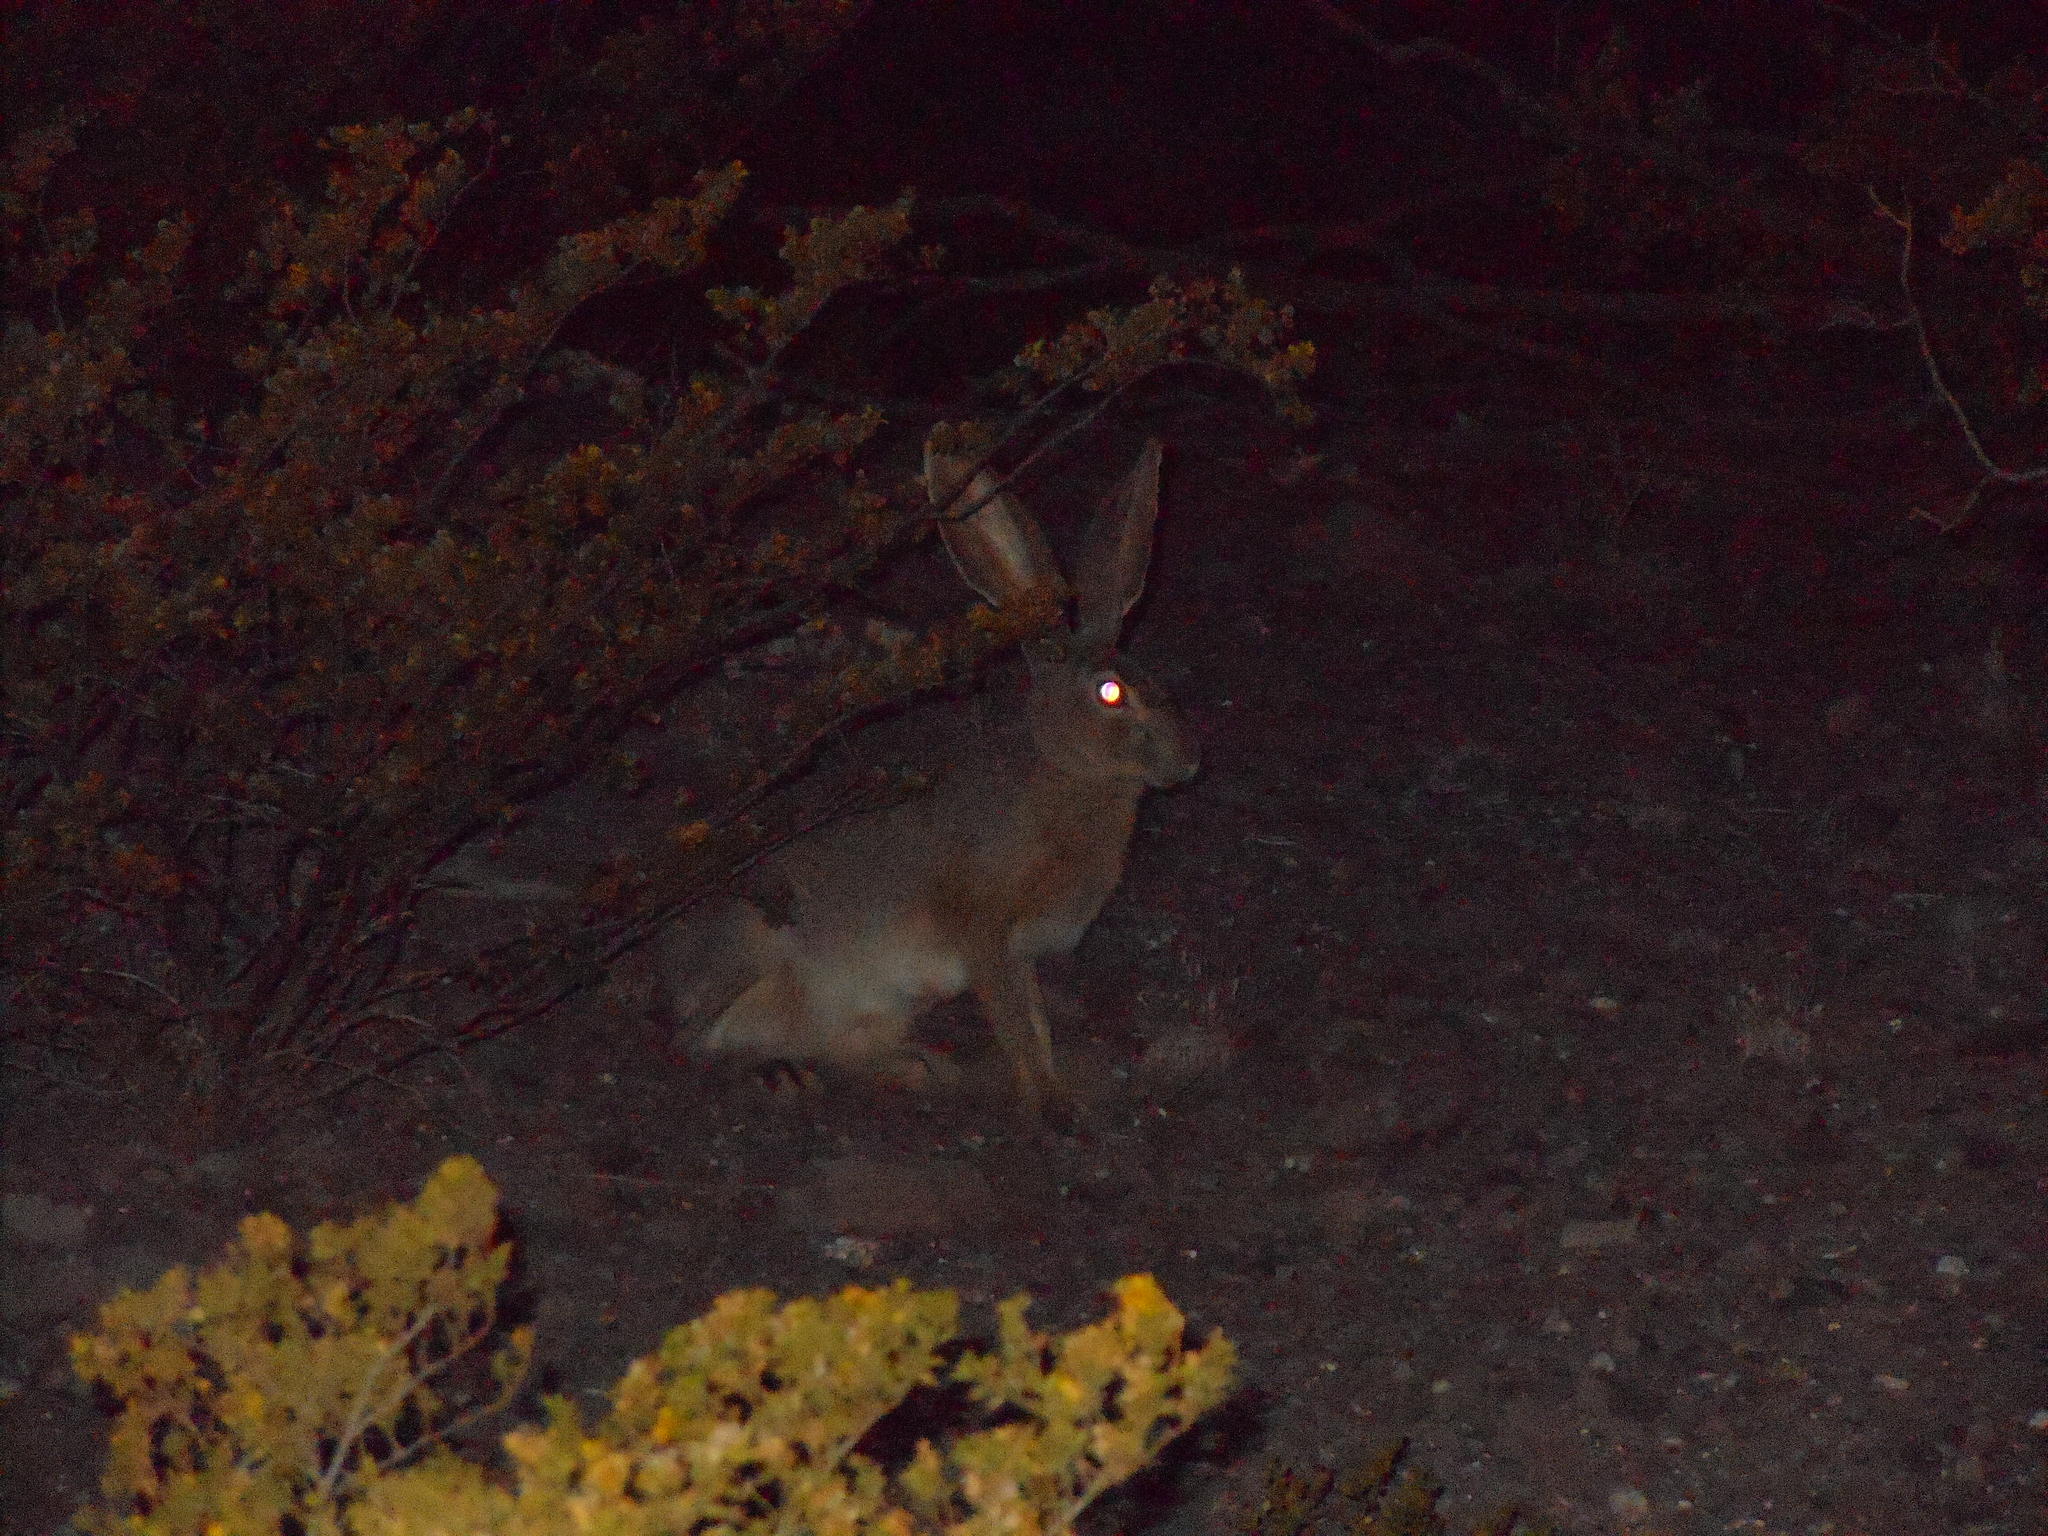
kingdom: Animalia
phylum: Chordata
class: Mammalia
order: Lagomorpha
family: Leporidae
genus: Lepus
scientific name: Lepus californicus
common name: Black-tailed jackrabbit
